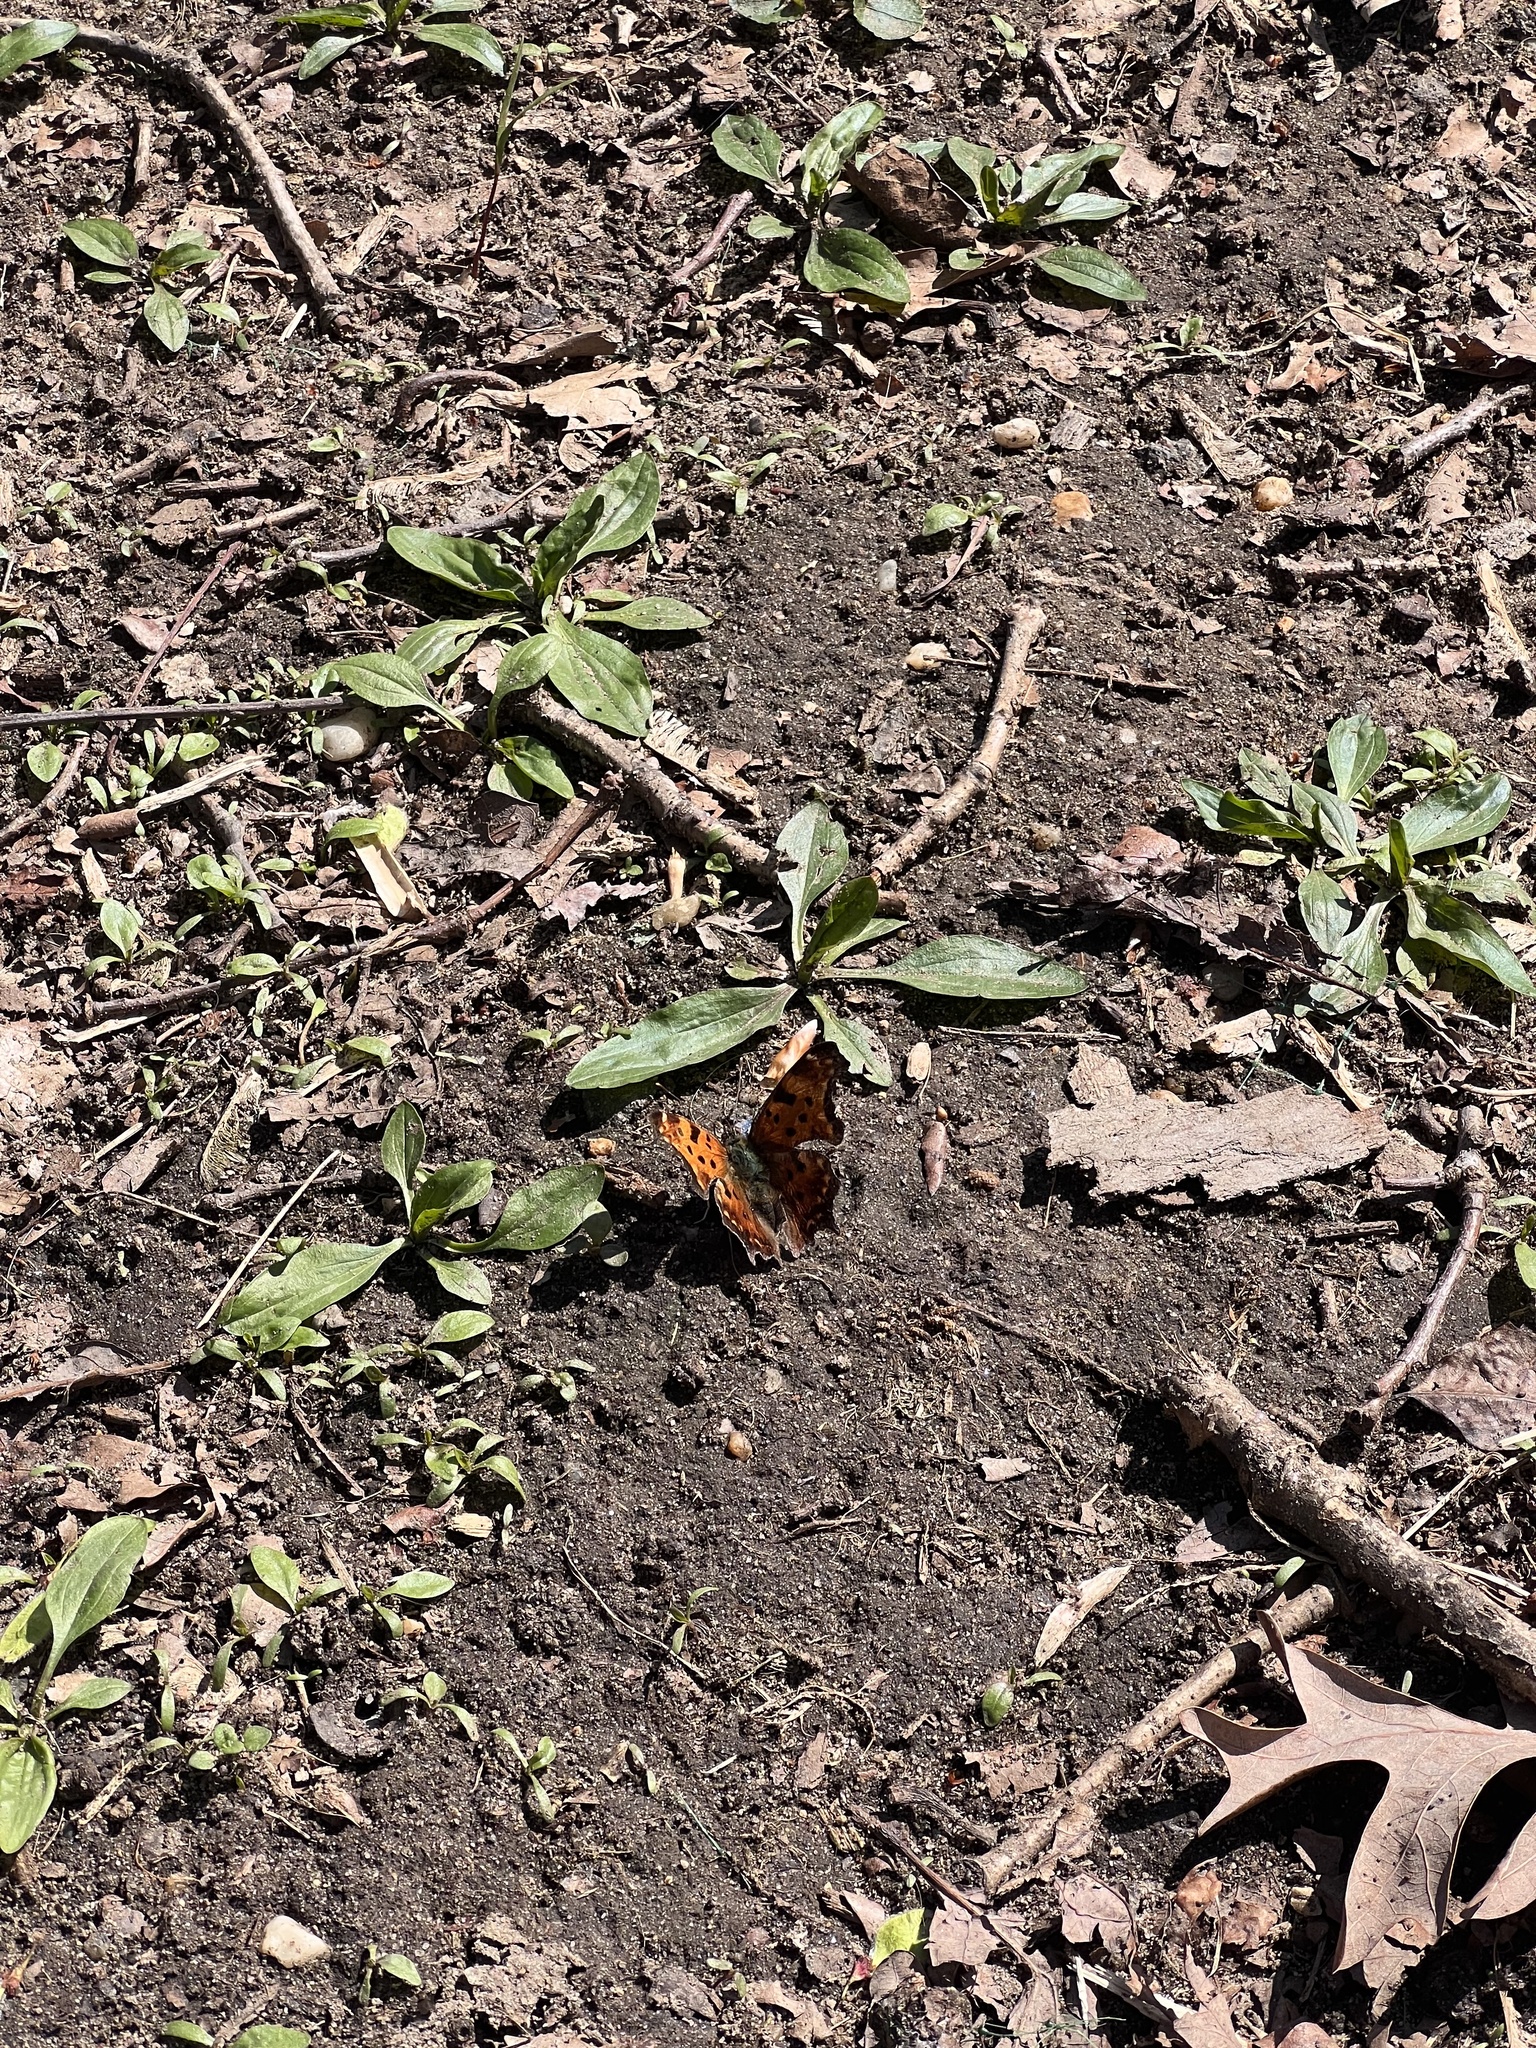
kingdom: Animalia
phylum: Arthropoda
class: Insecta
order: Lepidoptera
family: Nymphalidae
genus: Polygonia
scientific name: Polygonia comma
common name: Eastern comma
